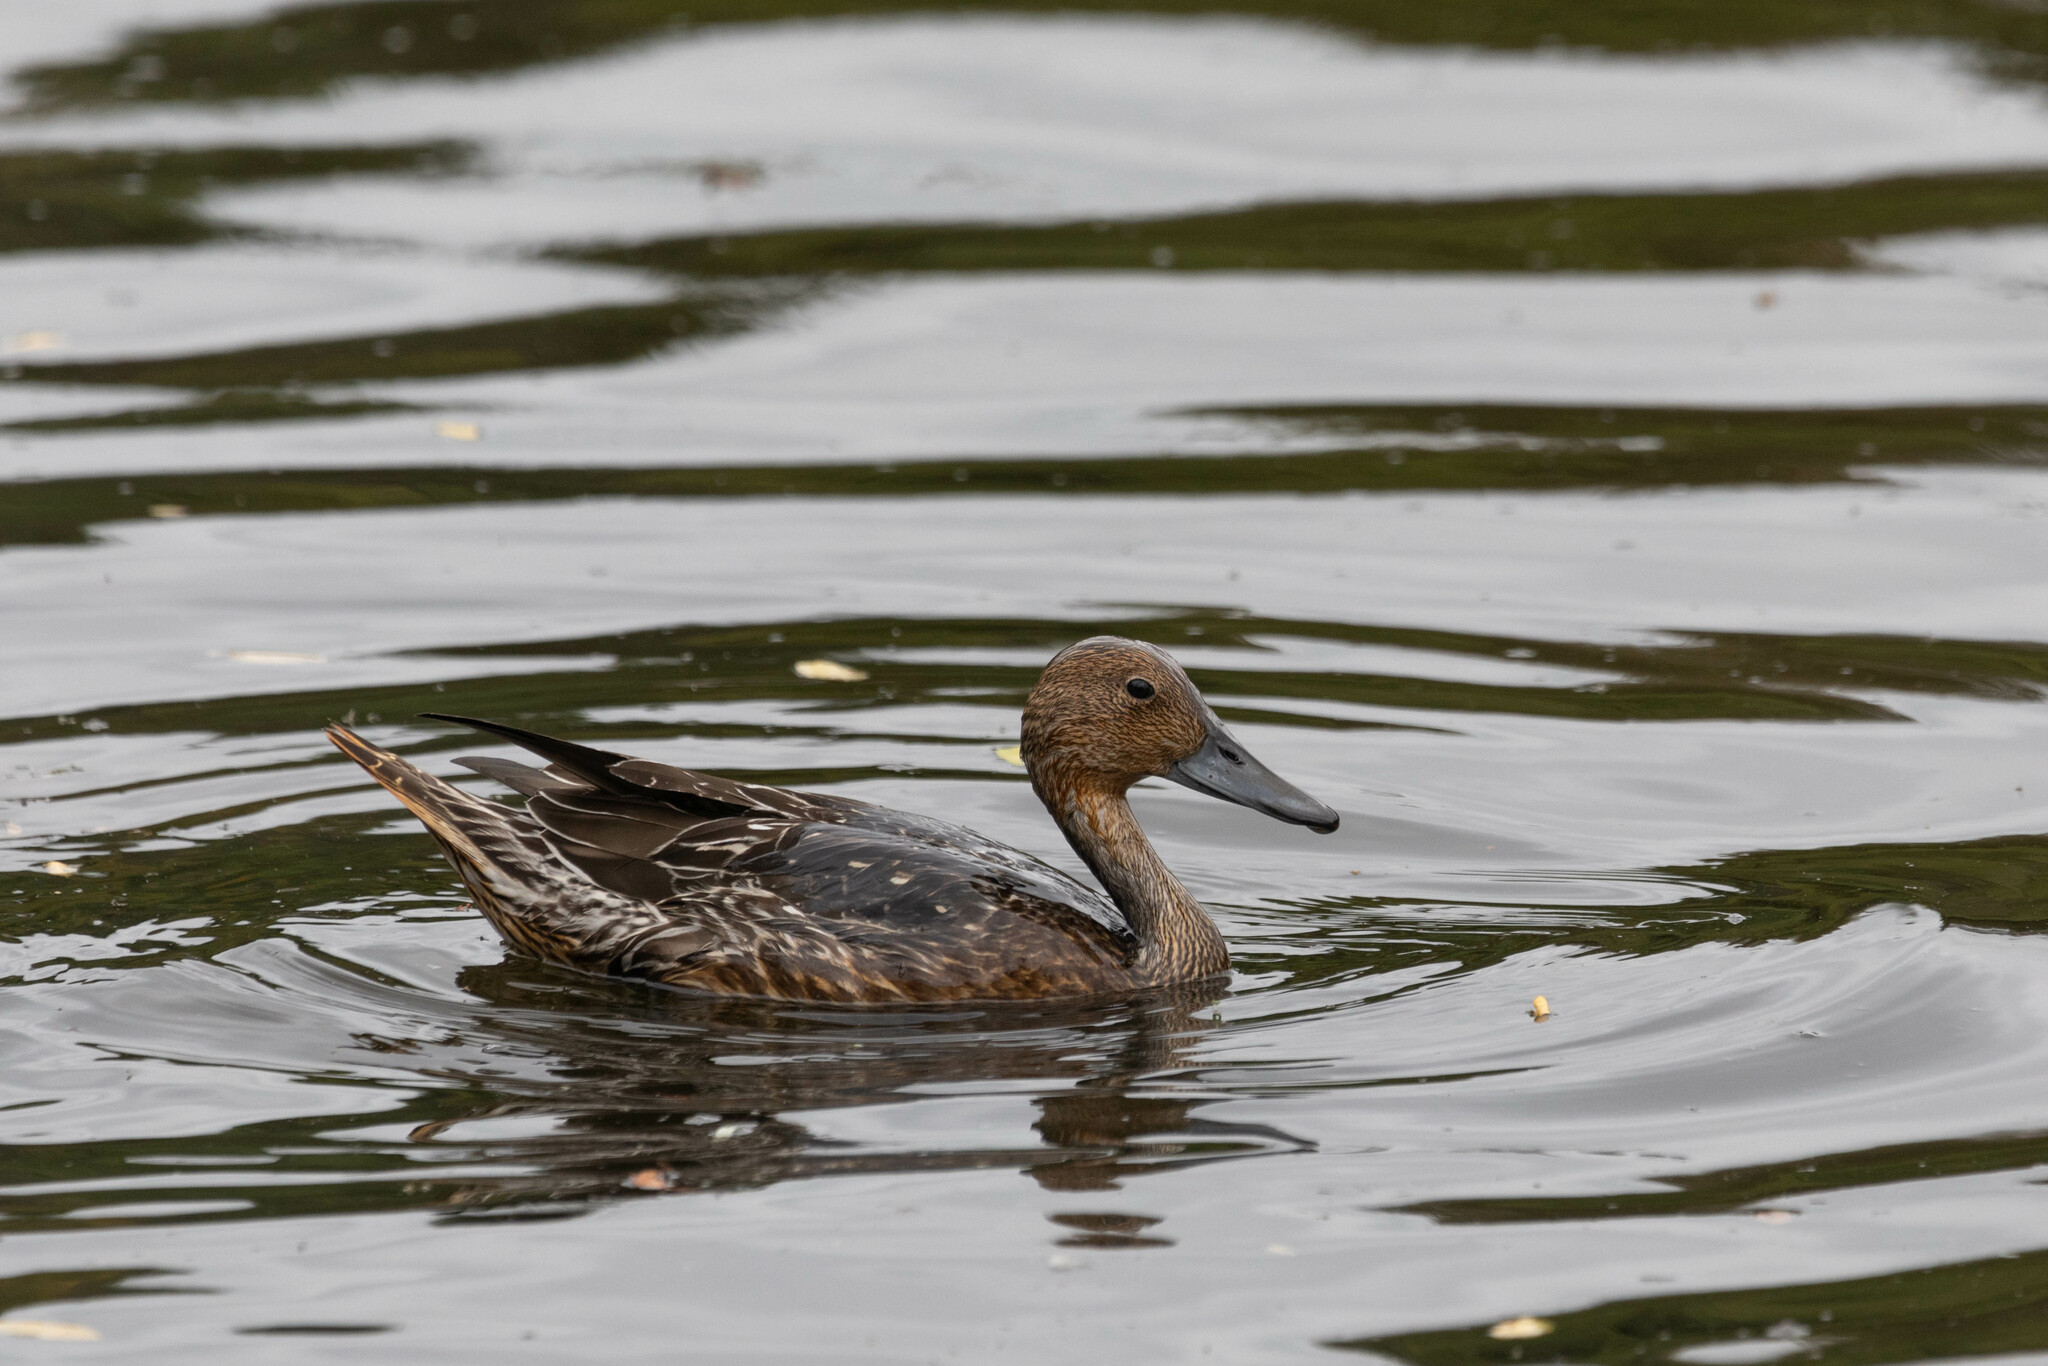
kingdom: Animalia
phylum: Chordata
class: Aves
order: Anseriformes
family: Anatidae
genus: Anas
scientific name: Anas acuta
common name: Northern pintail
